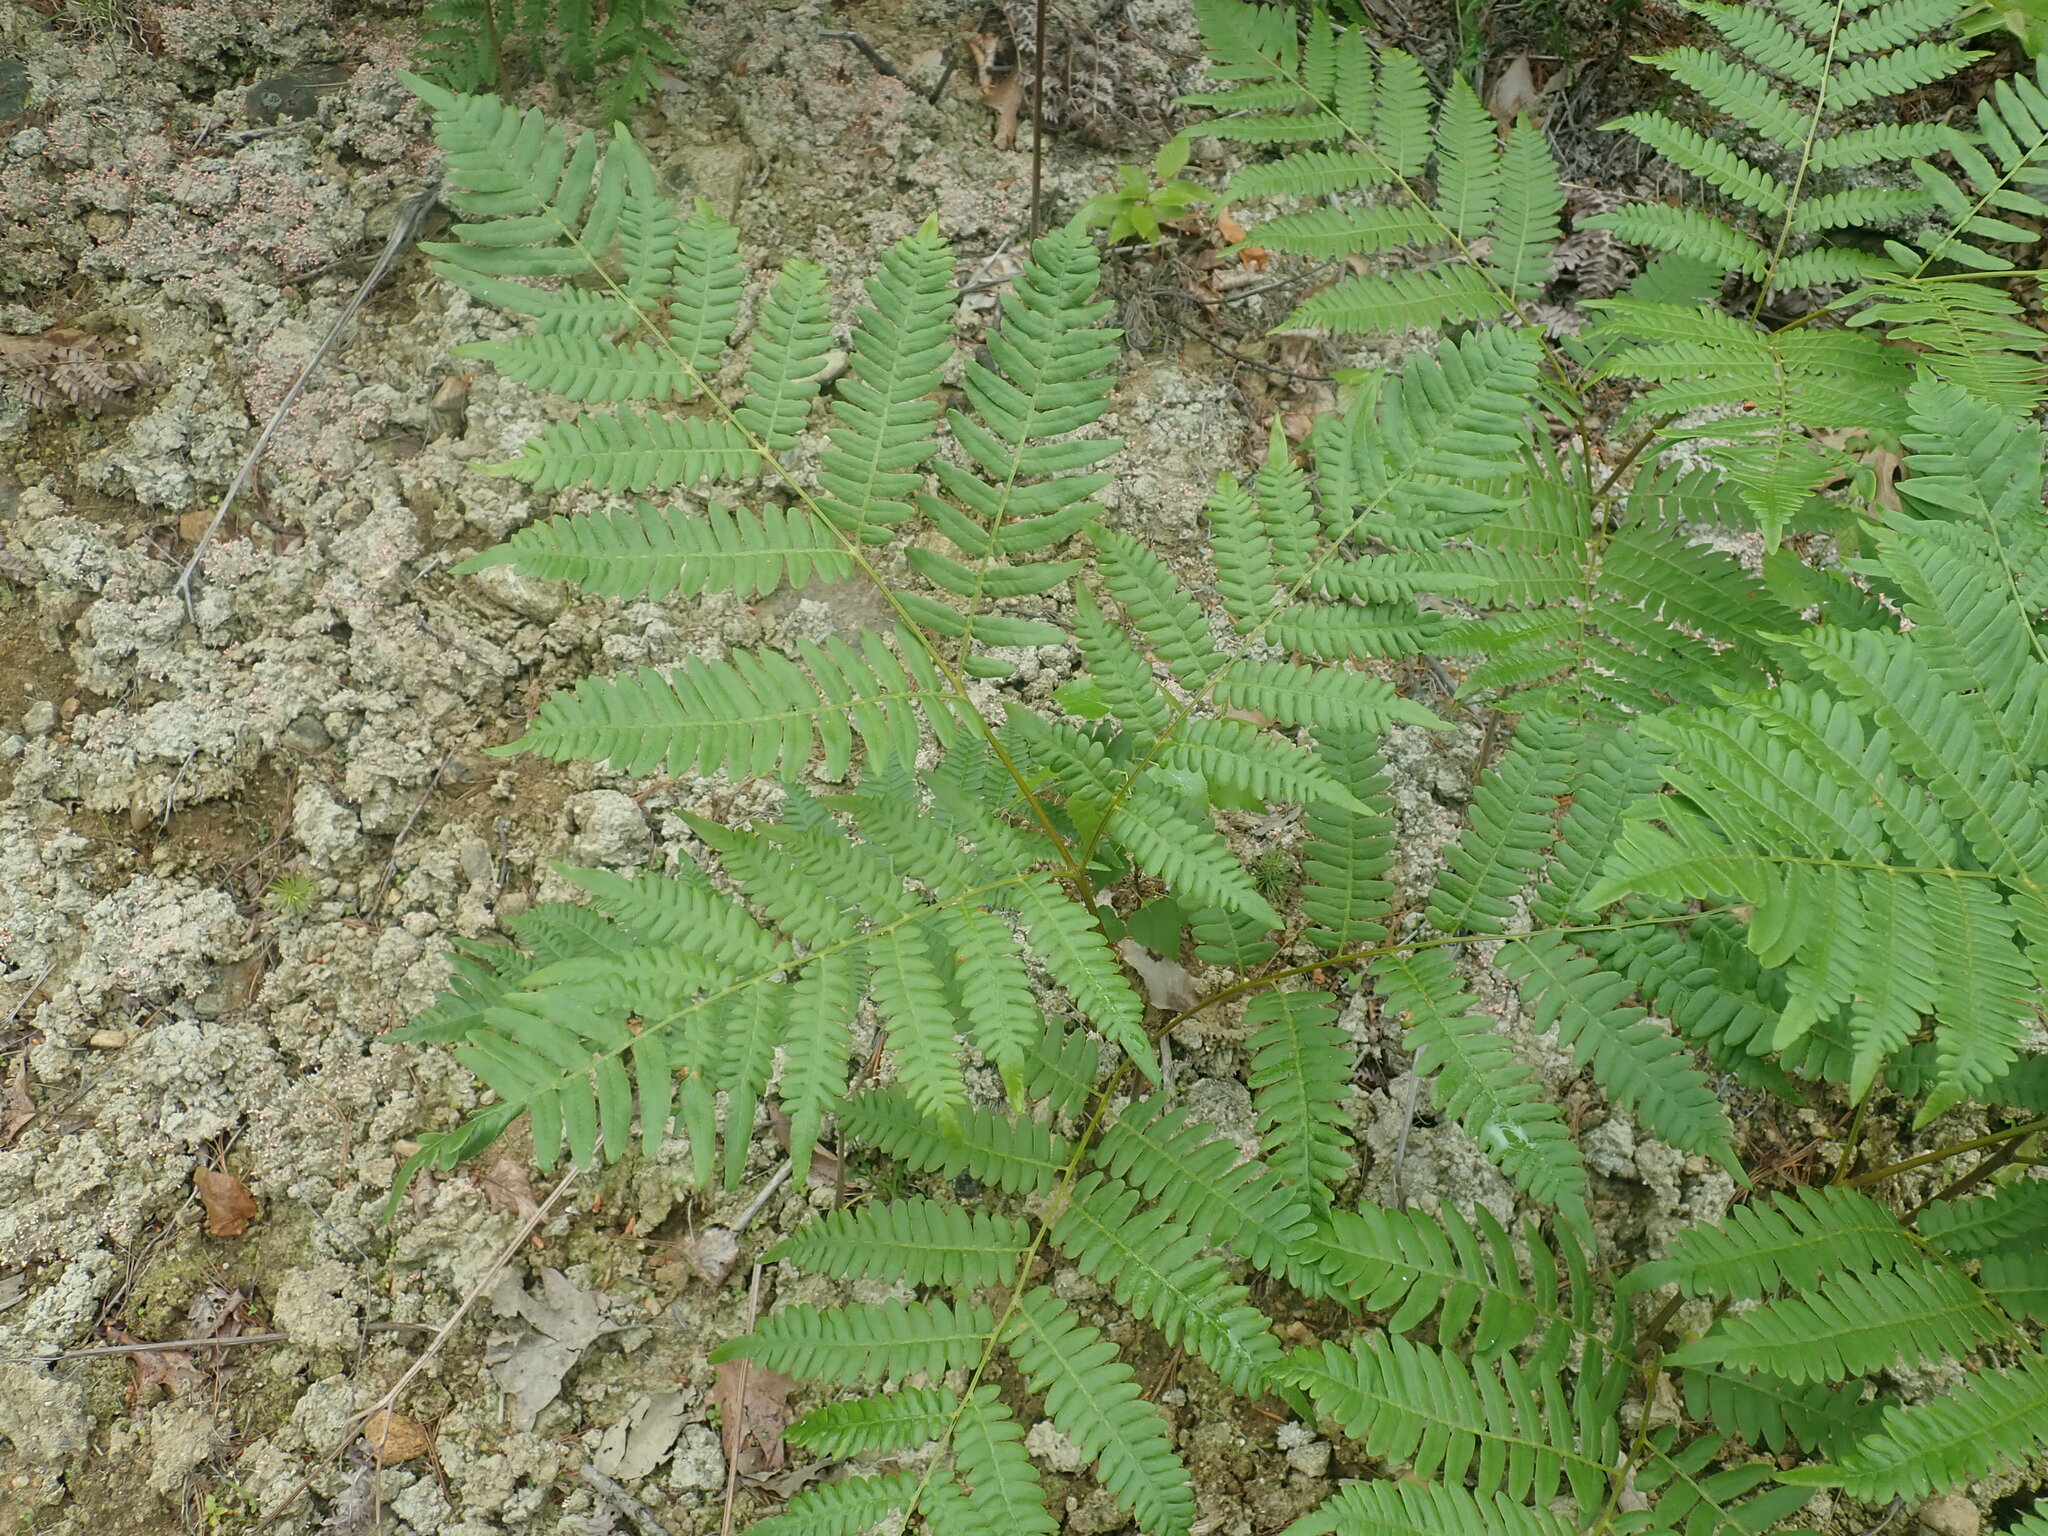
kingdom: Plantae
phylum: Tracheophyta
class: Polypodiopsida
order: Polypodiales
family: Dennstaedtiaceae
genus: Pteridium
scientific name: Pteridium aquilinum
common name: Bracken
